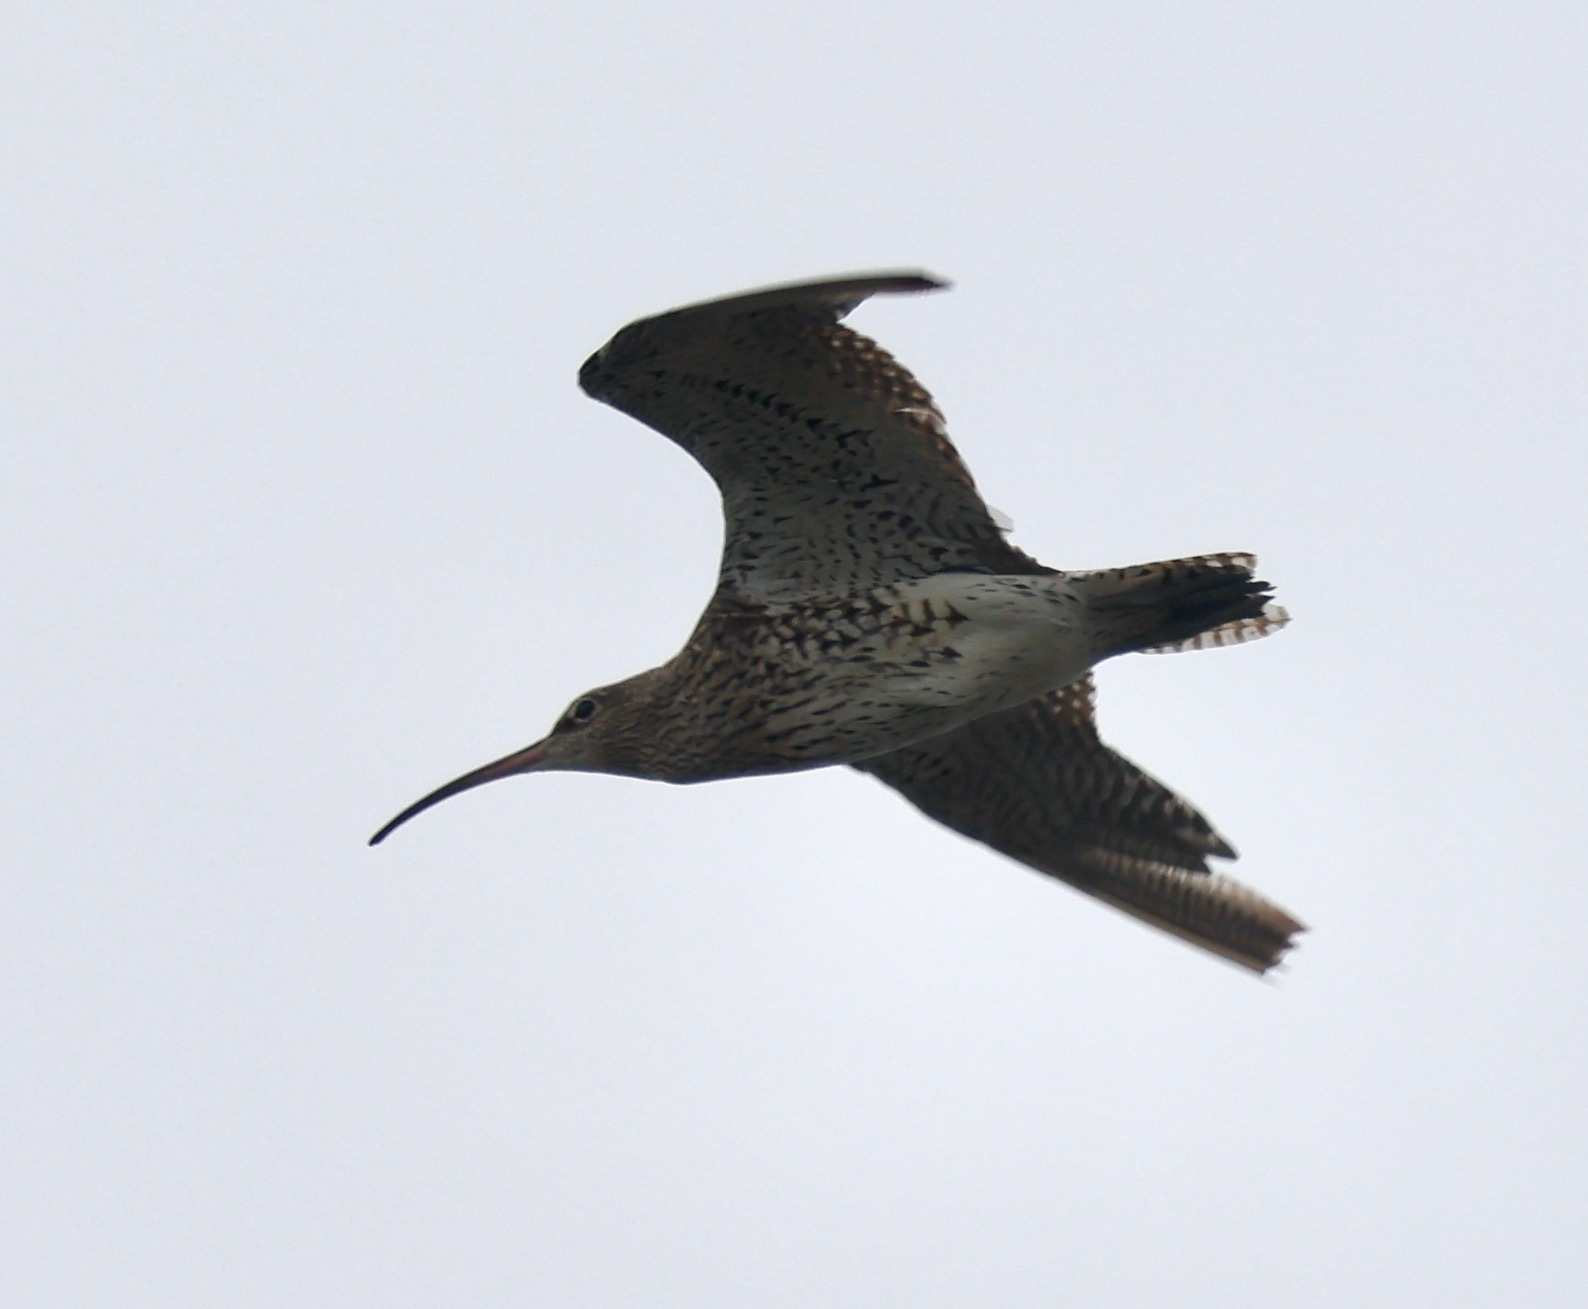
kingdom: Animalia
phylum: Chordata
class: Aves
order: Charadriiformes
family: Scolopacidae
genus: Numenius
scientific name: Numenius arquata
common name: Eurasian curlew
